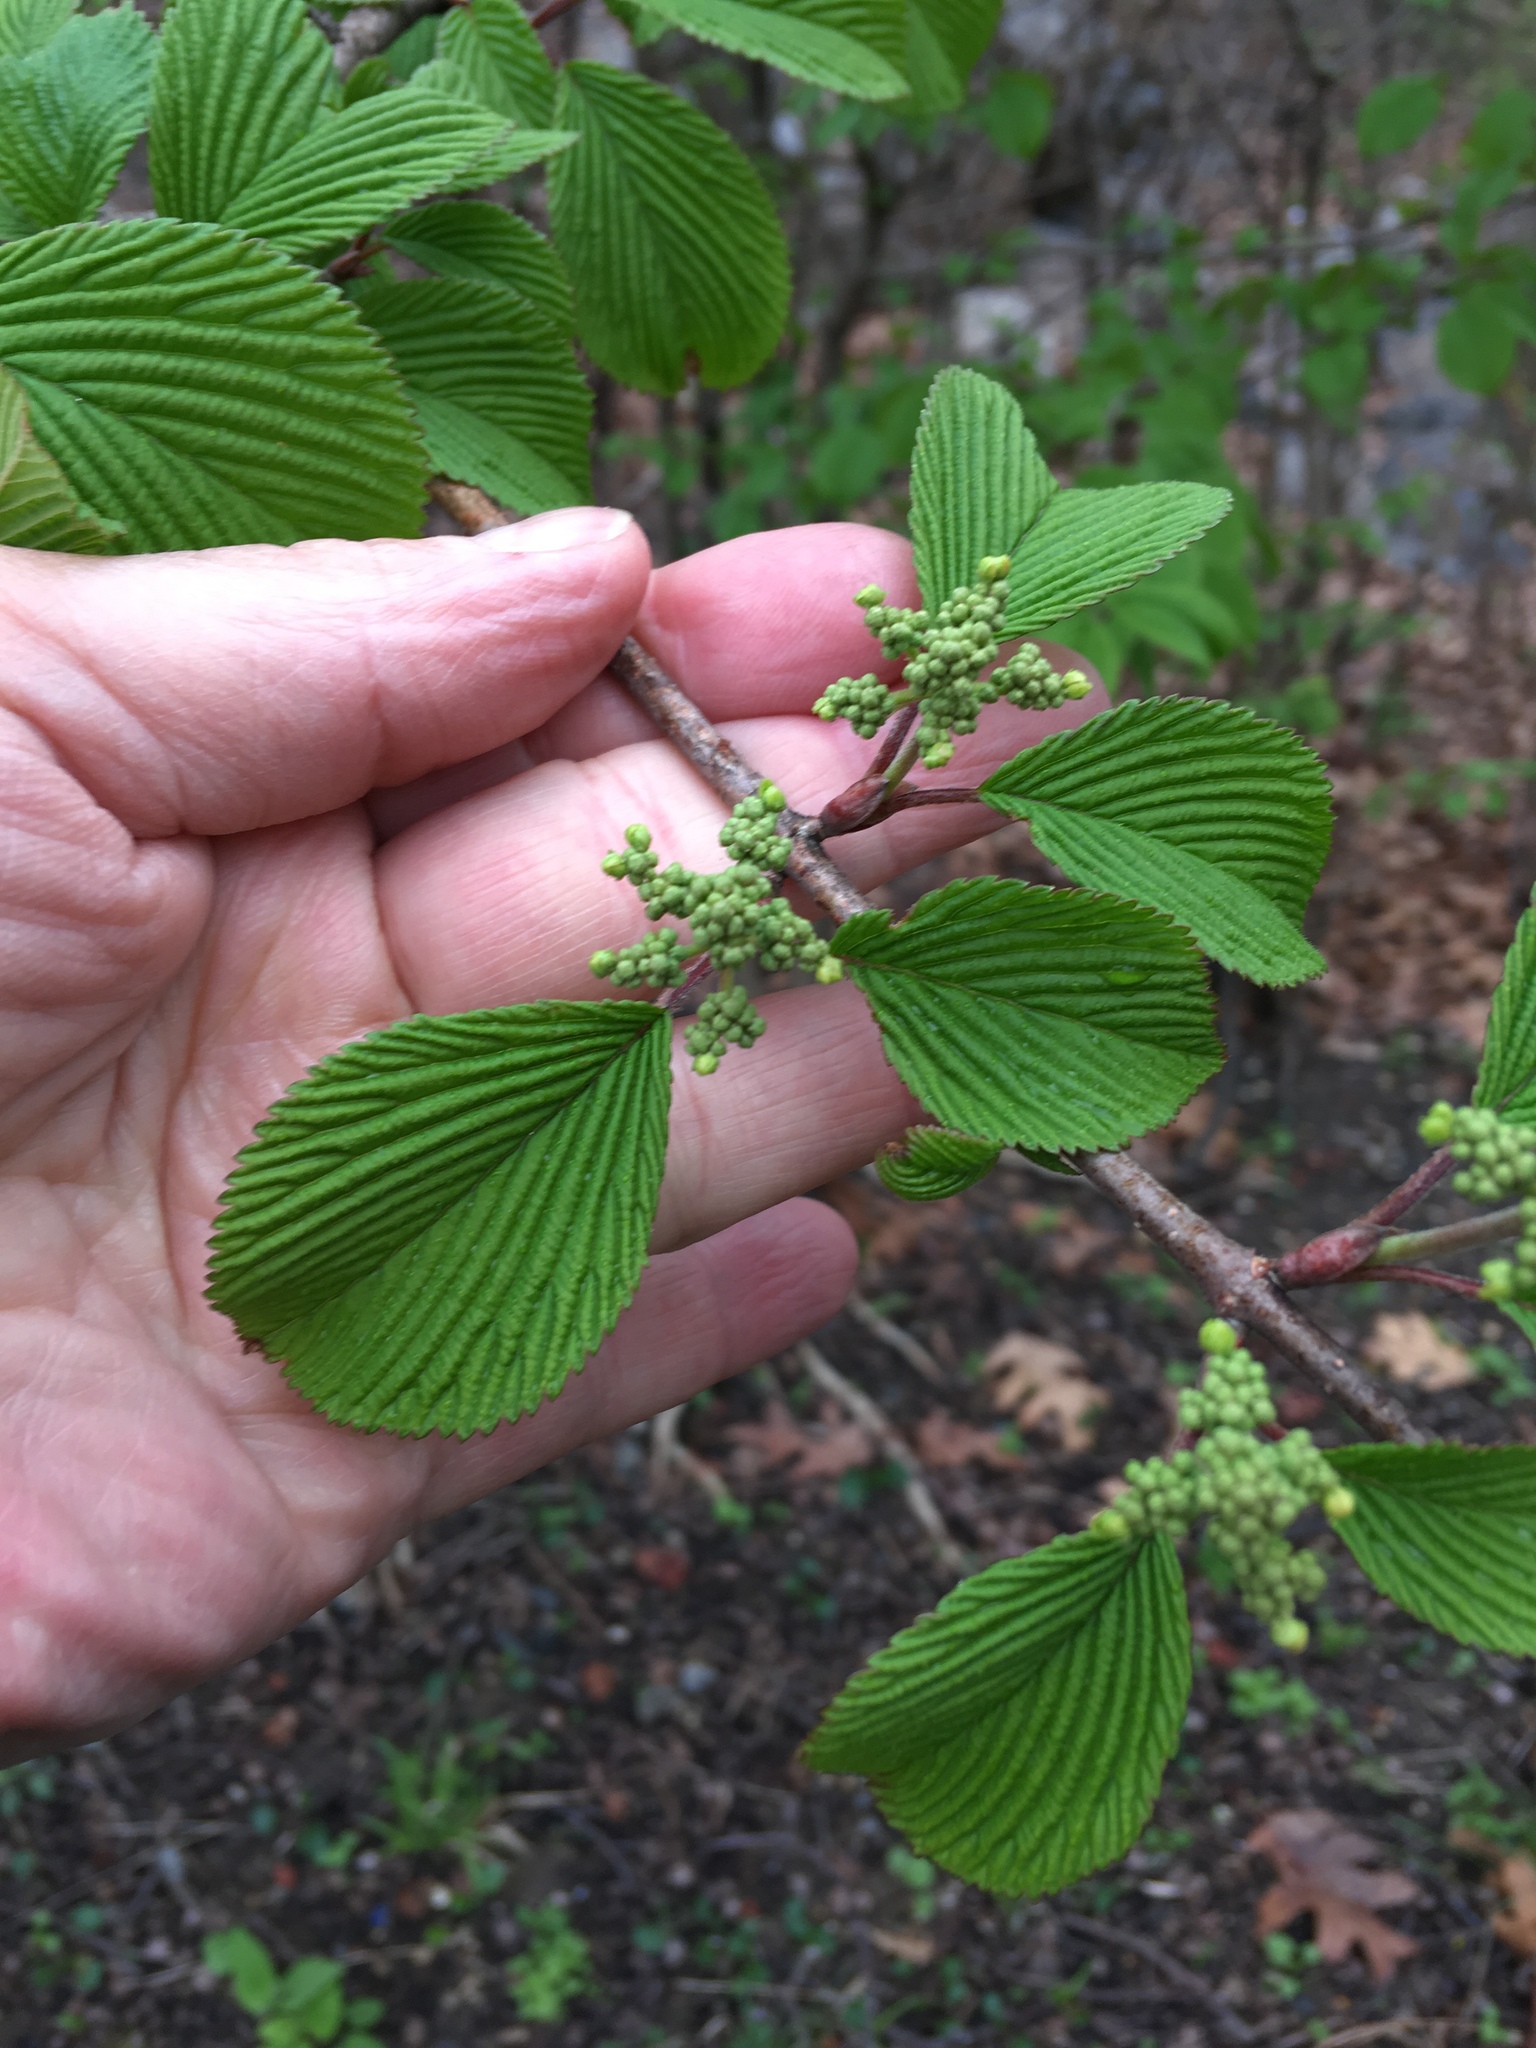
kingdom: Plantae
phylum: Tracheophyta
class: Magnoliopsida
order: Dipsacales
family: Viburnaceae
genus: Viburnum
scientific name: Viburnum plicatum
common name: Japanese snowball
